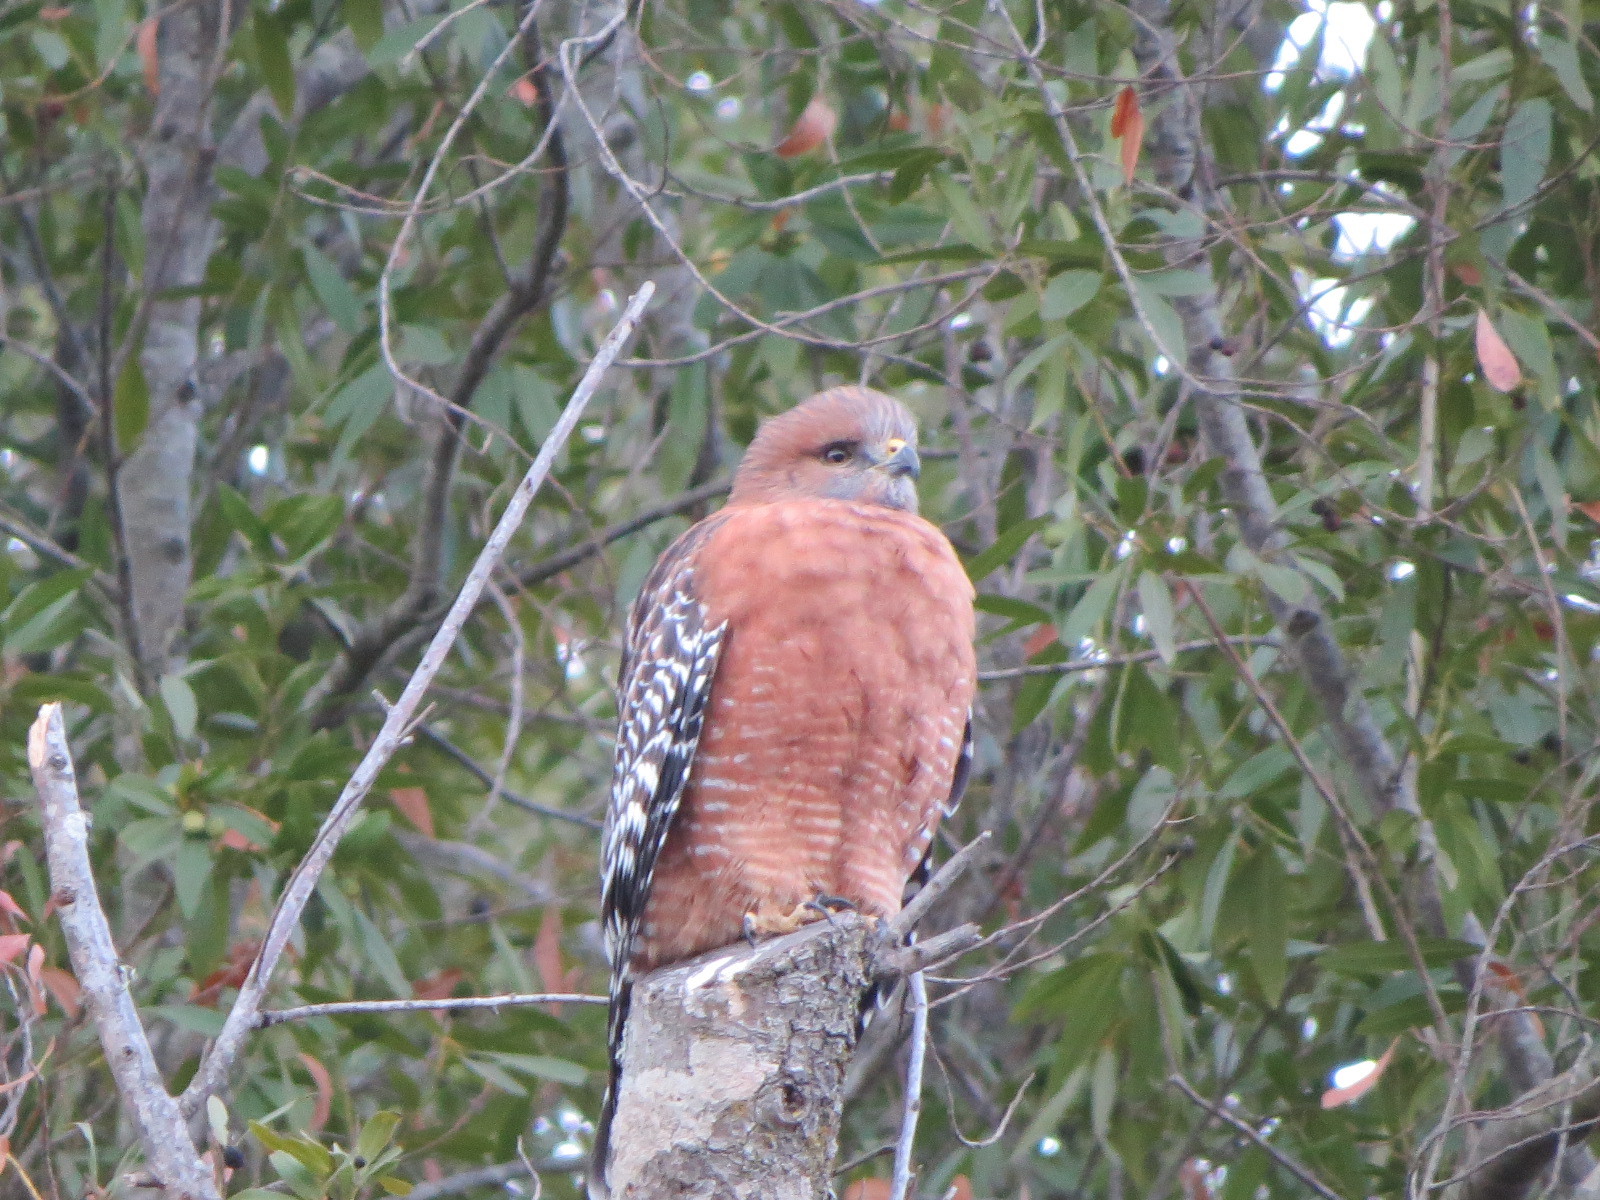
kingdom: Animalia
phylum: Chordata
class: Aves
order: Accipitriformes
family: Accipitridae
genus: Buteo
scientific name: Buteo lineatus
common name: Red-shouldered hawk
